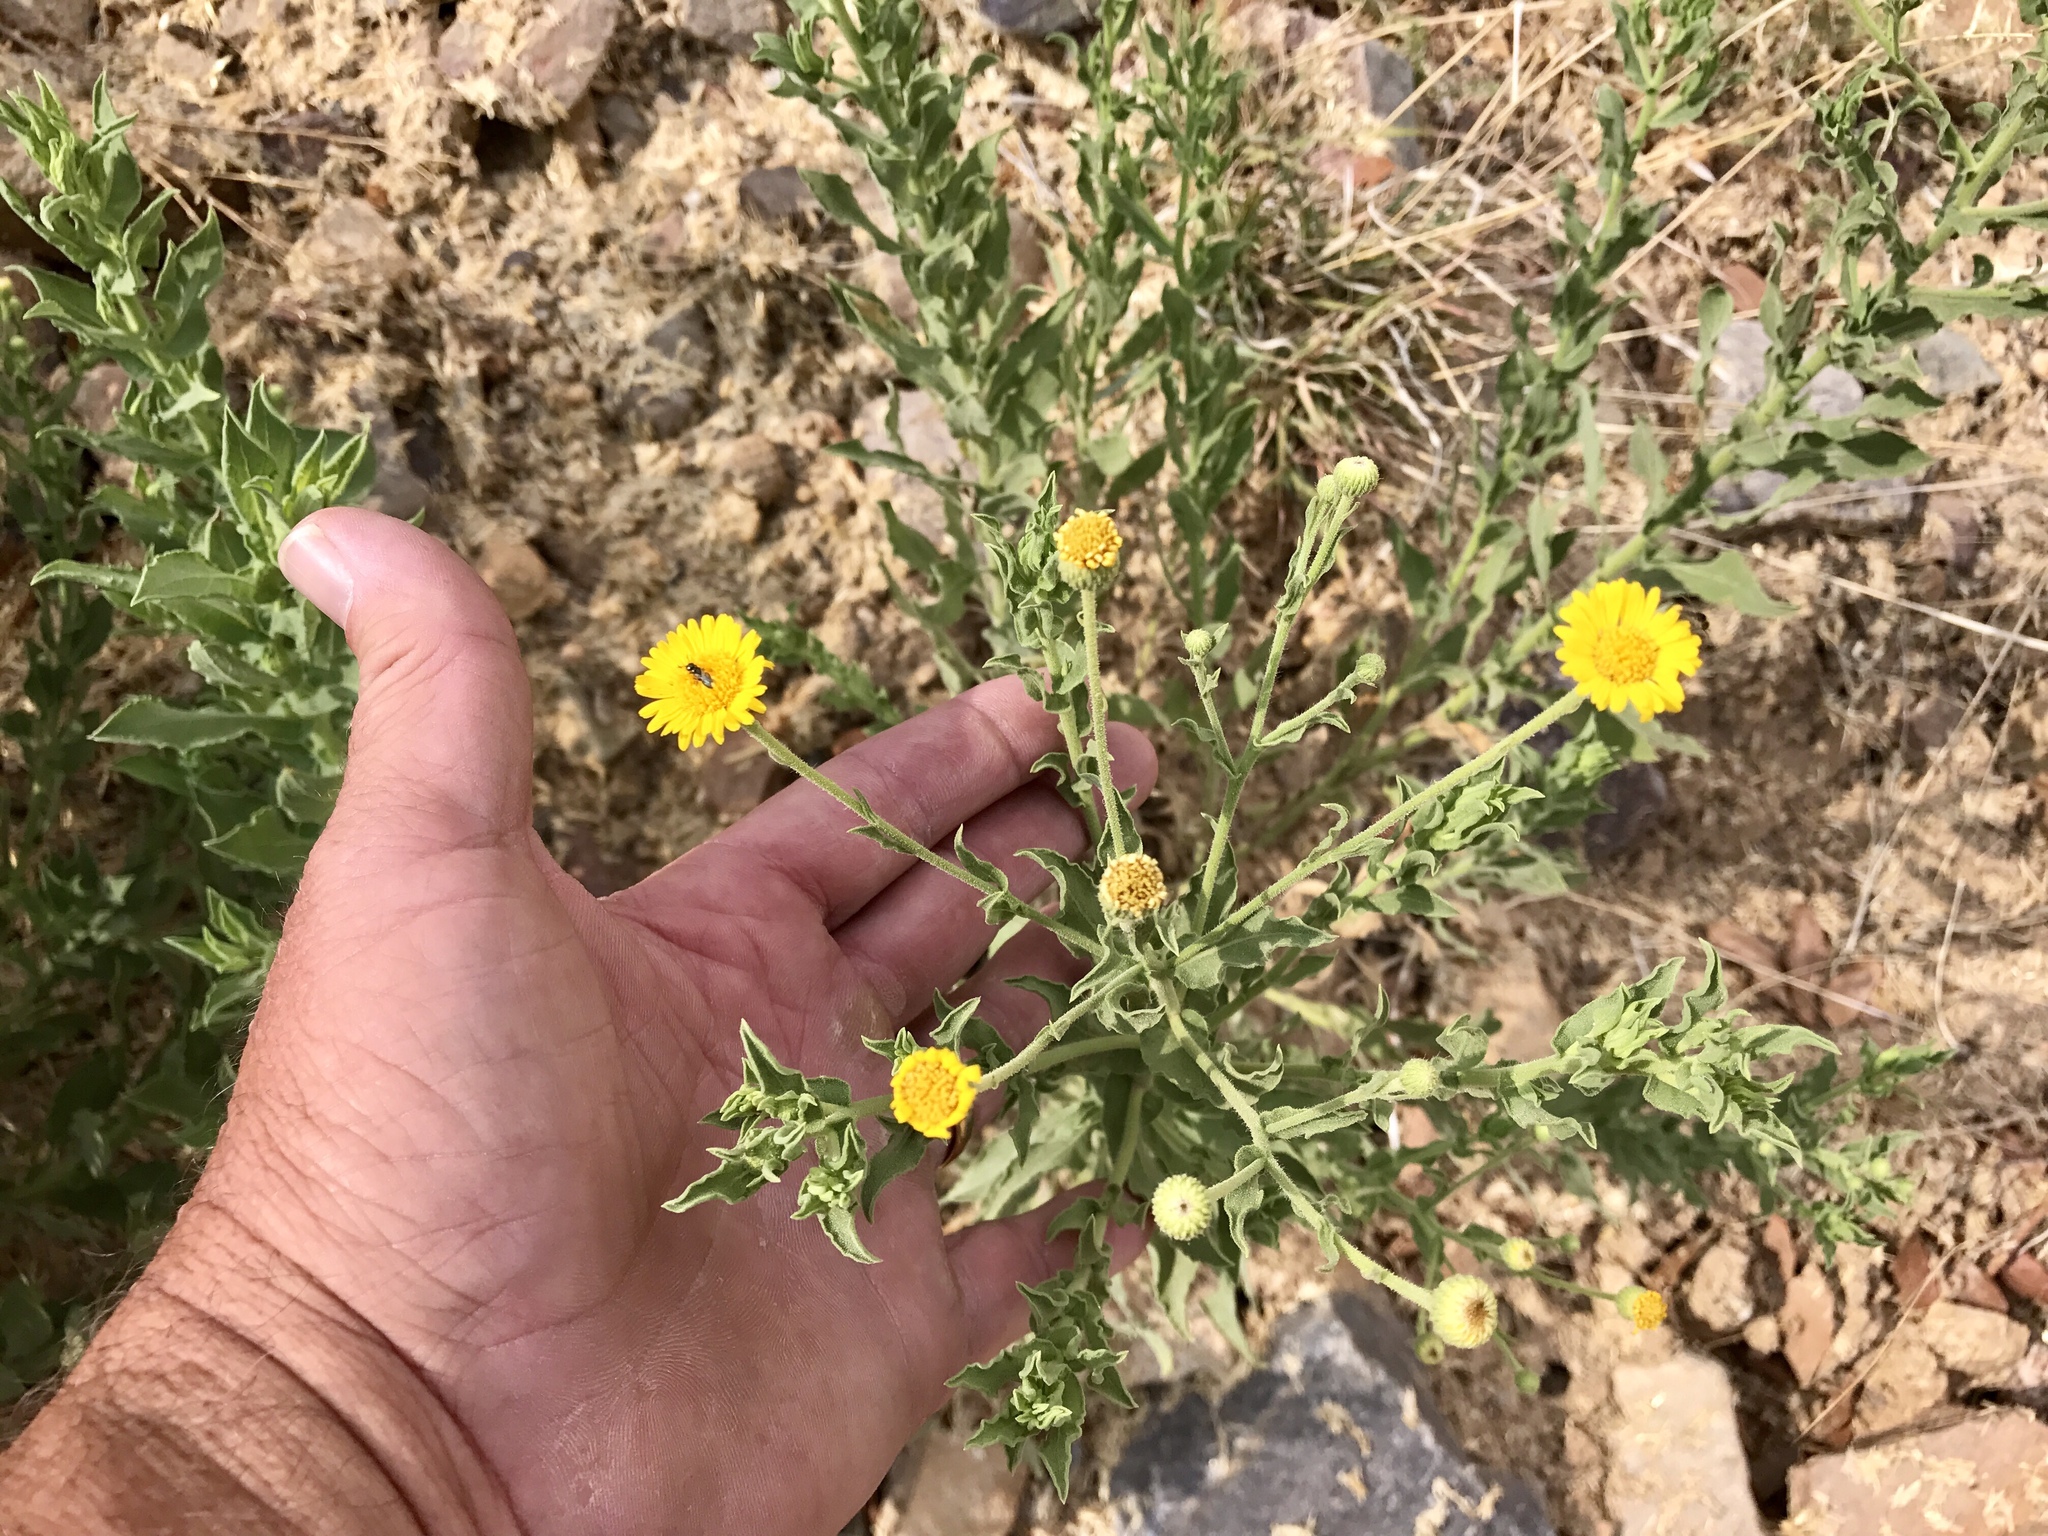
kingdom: Plantae
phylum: Tracheophyta
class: Magnoliopsida
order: Asterales
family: Asteraceae
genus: Heterotheca
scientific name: Heterotheca subaxillaris
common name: Camphorweed
